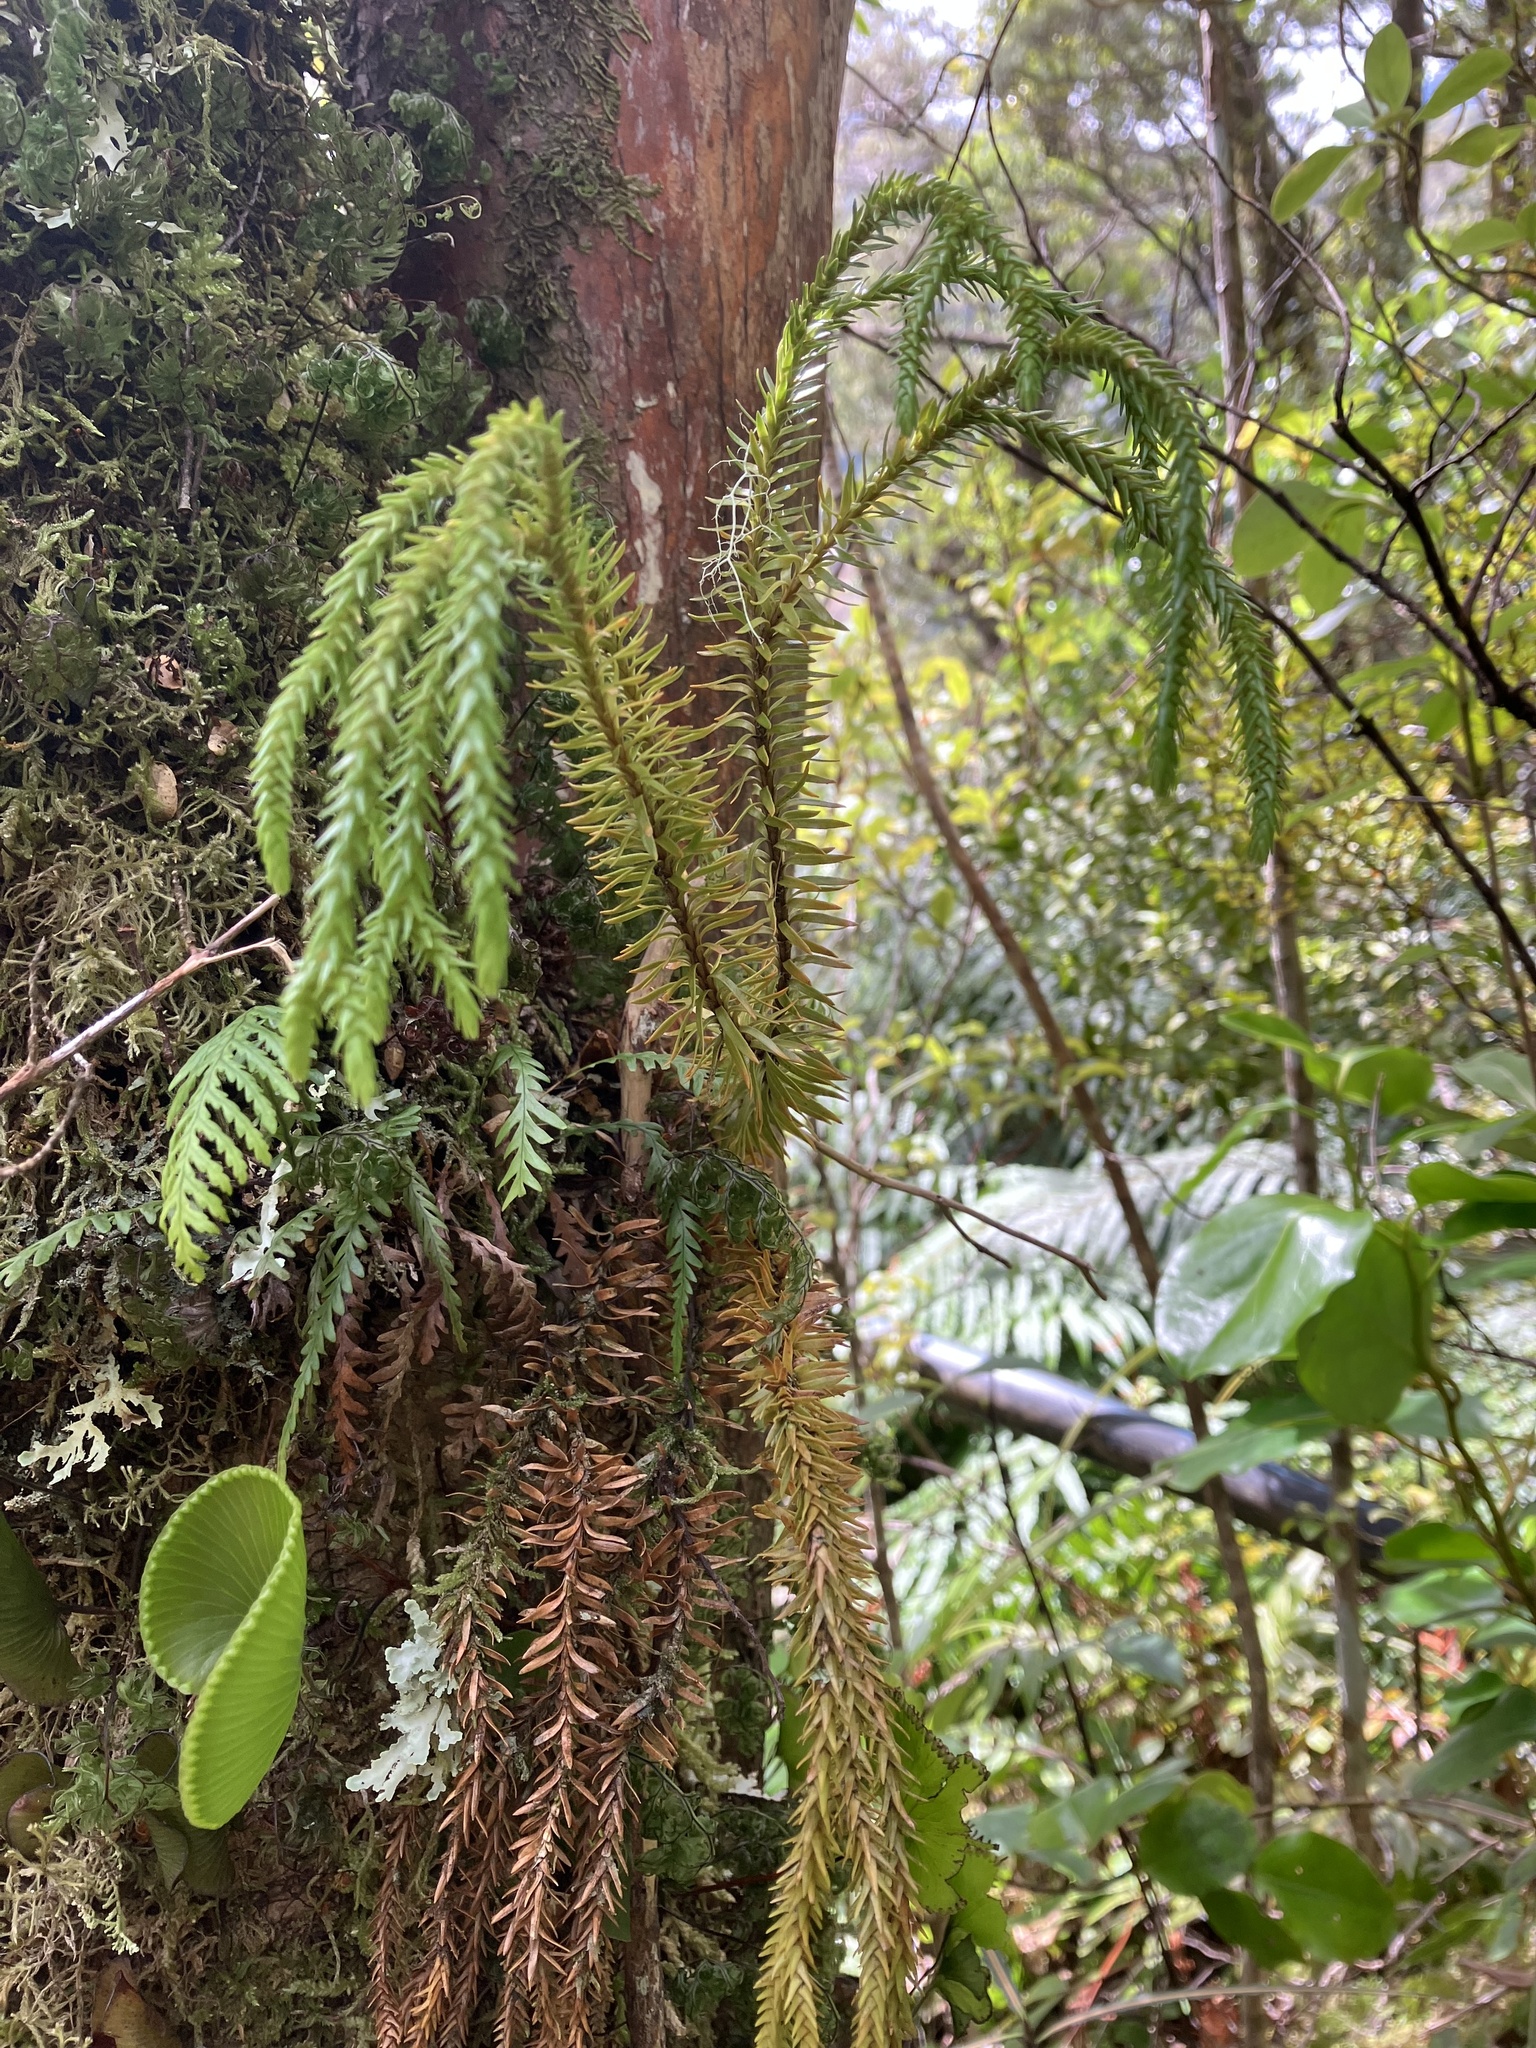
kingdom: Plantae
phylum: Tracheophyta
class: Lycopodiopsida
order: Lycopodiales
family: Lycopodiaceae
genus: Phlegmariurus
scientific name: Phlegmariurus varius
